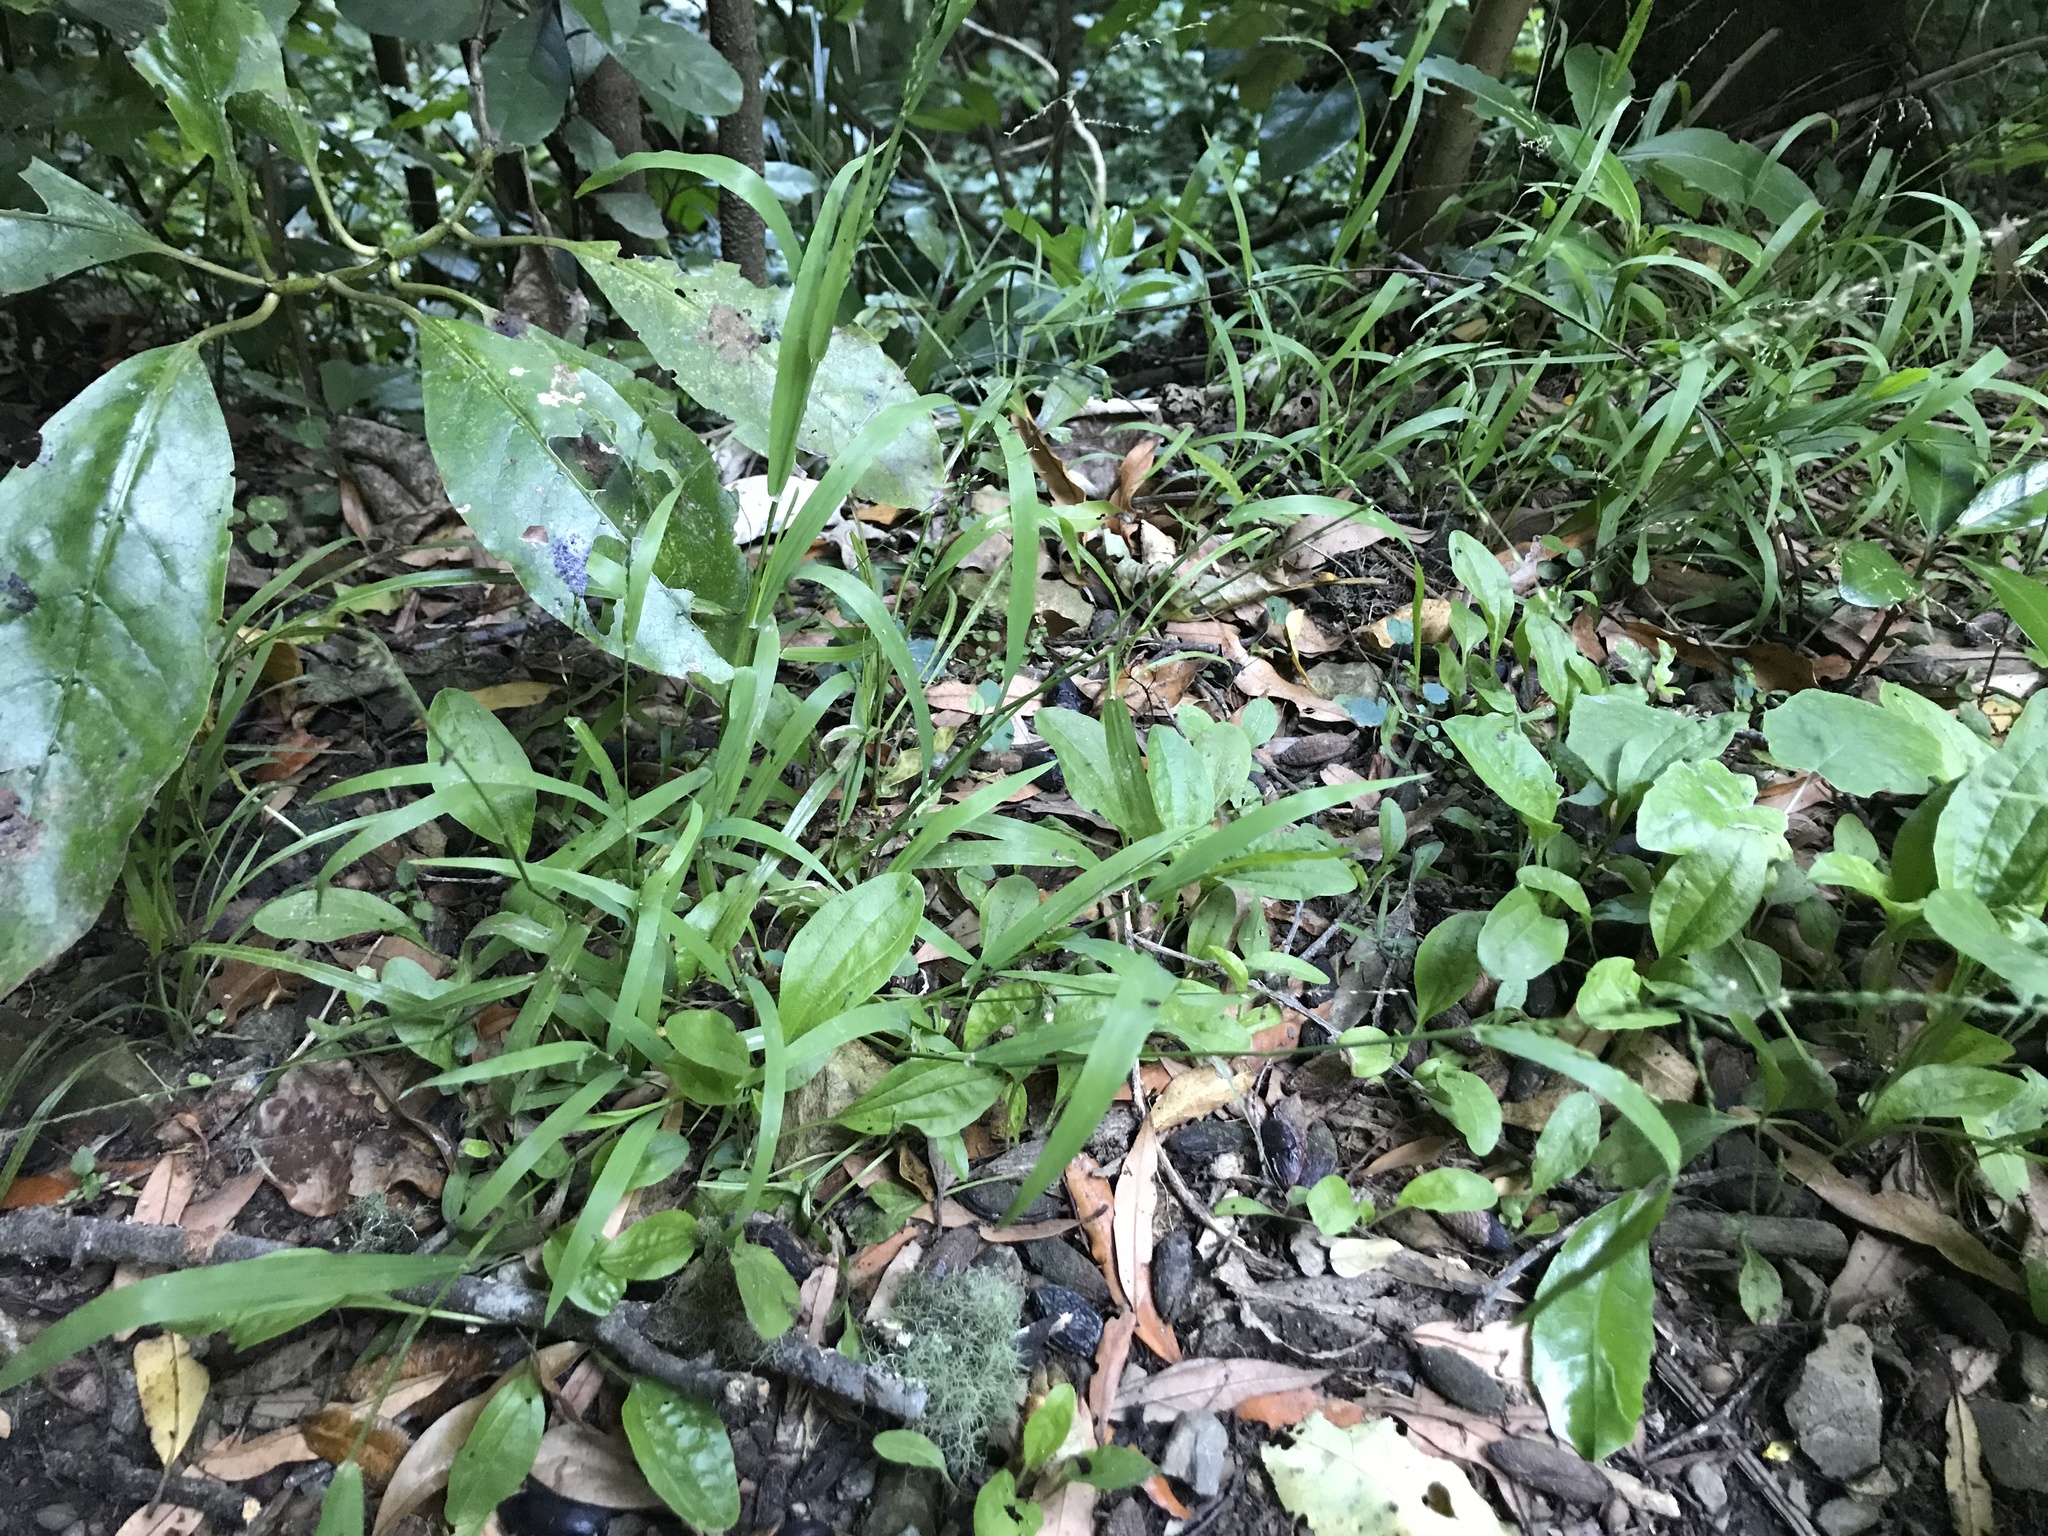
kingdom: Plantae
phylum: Tracheophyta
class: Liliopsida
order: Poales
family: Poaceae
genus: Ehrharta
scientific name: Ehrharta erecta
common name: Panic veldtgrass
